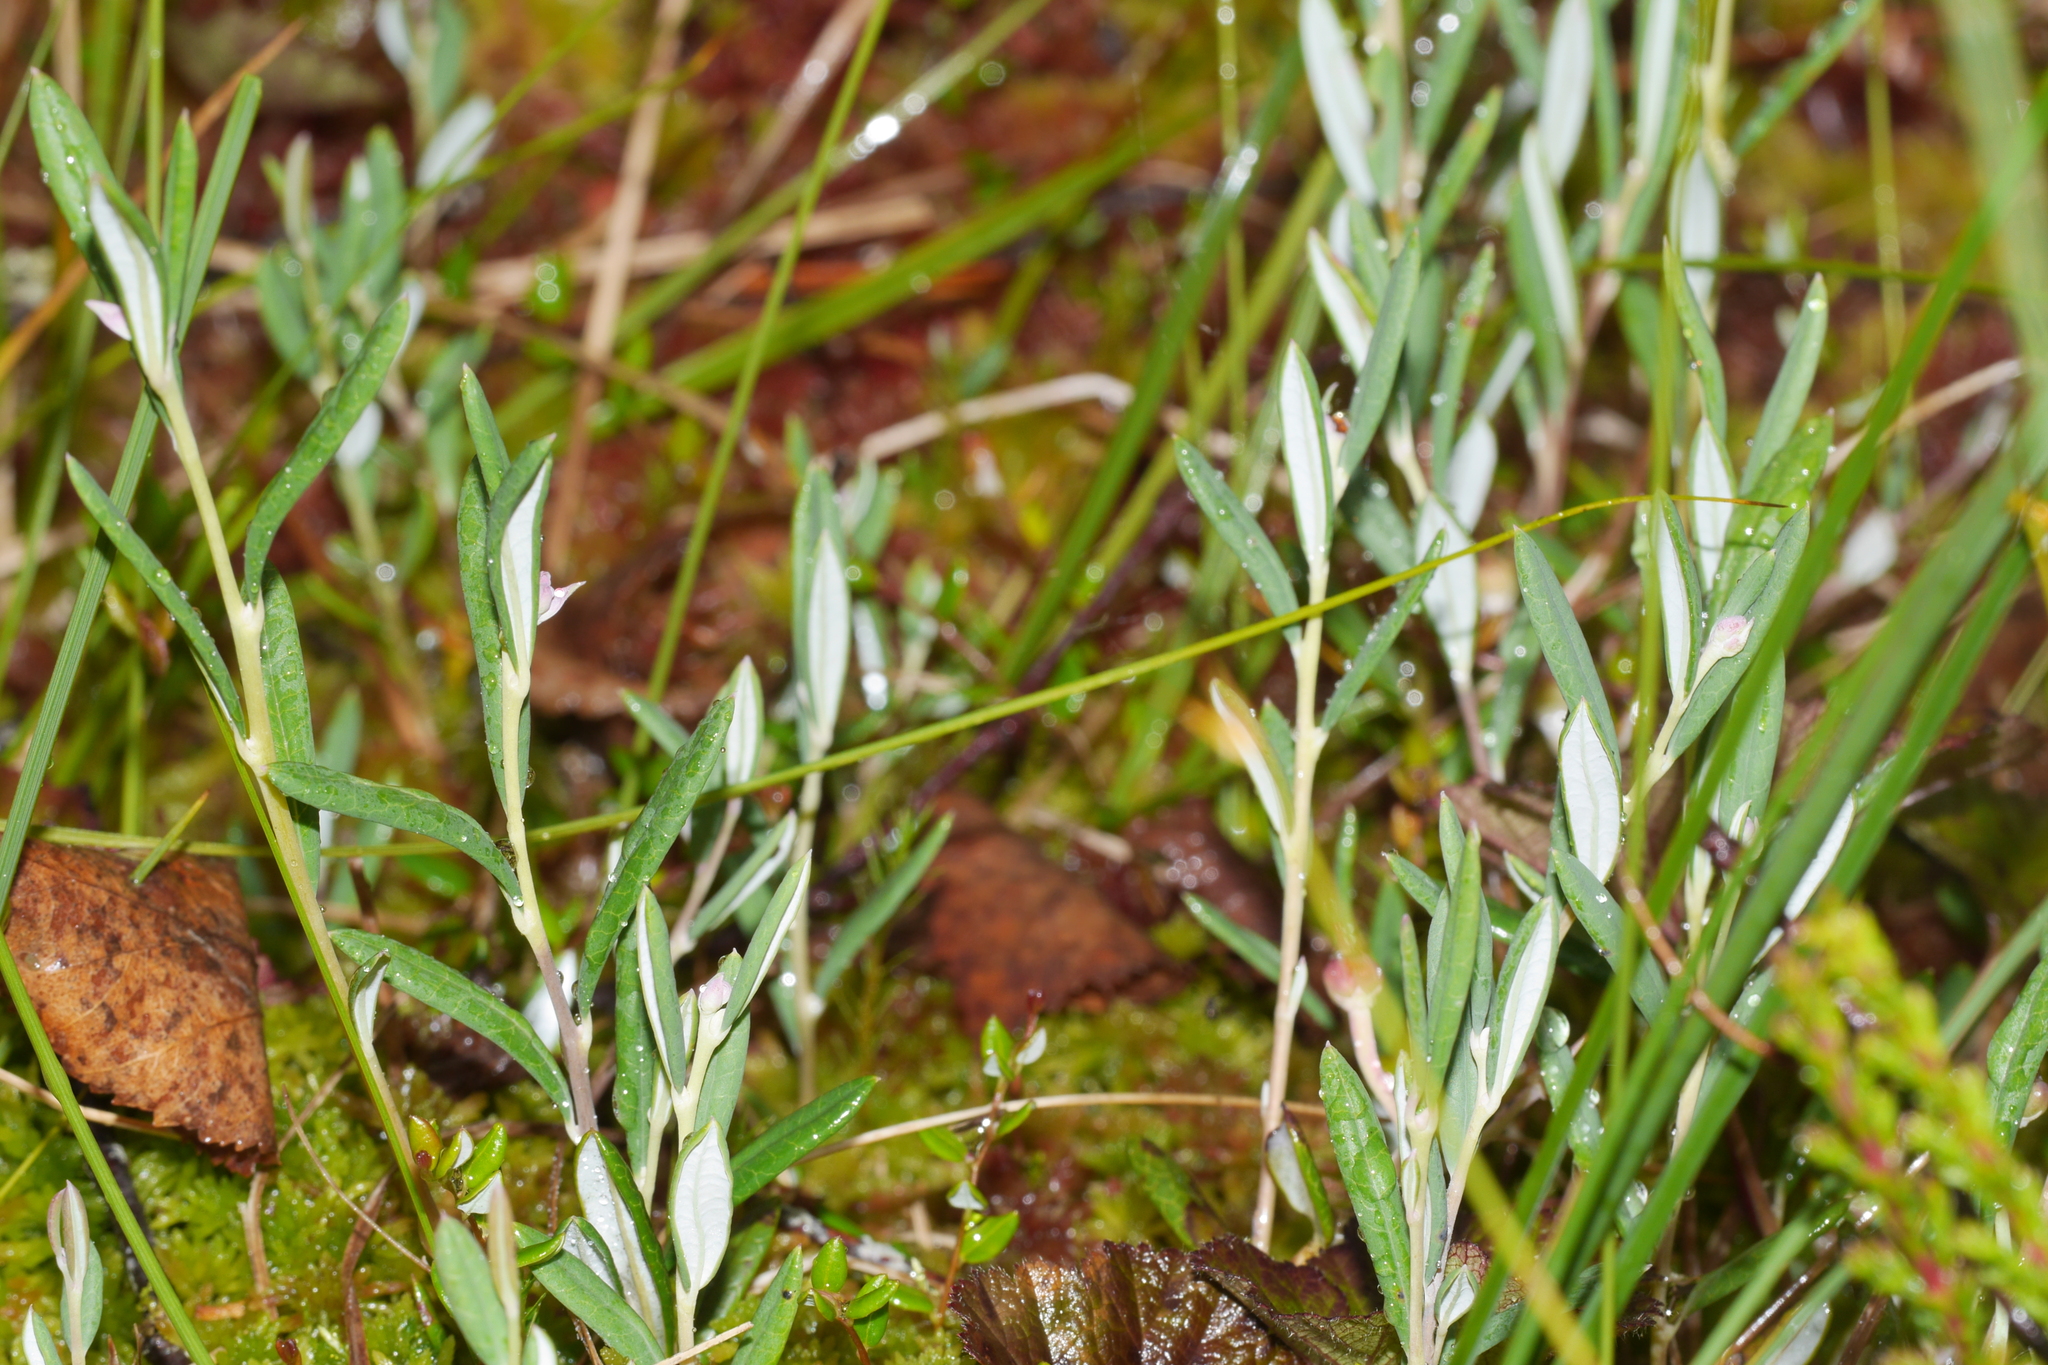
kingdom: Plantae
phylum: Tracheophyta
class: Magnoliopsida
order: Ericales
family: Ericaceae
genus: Andromeda
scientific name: Andromeda polifolia
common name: Bog-rosemary
